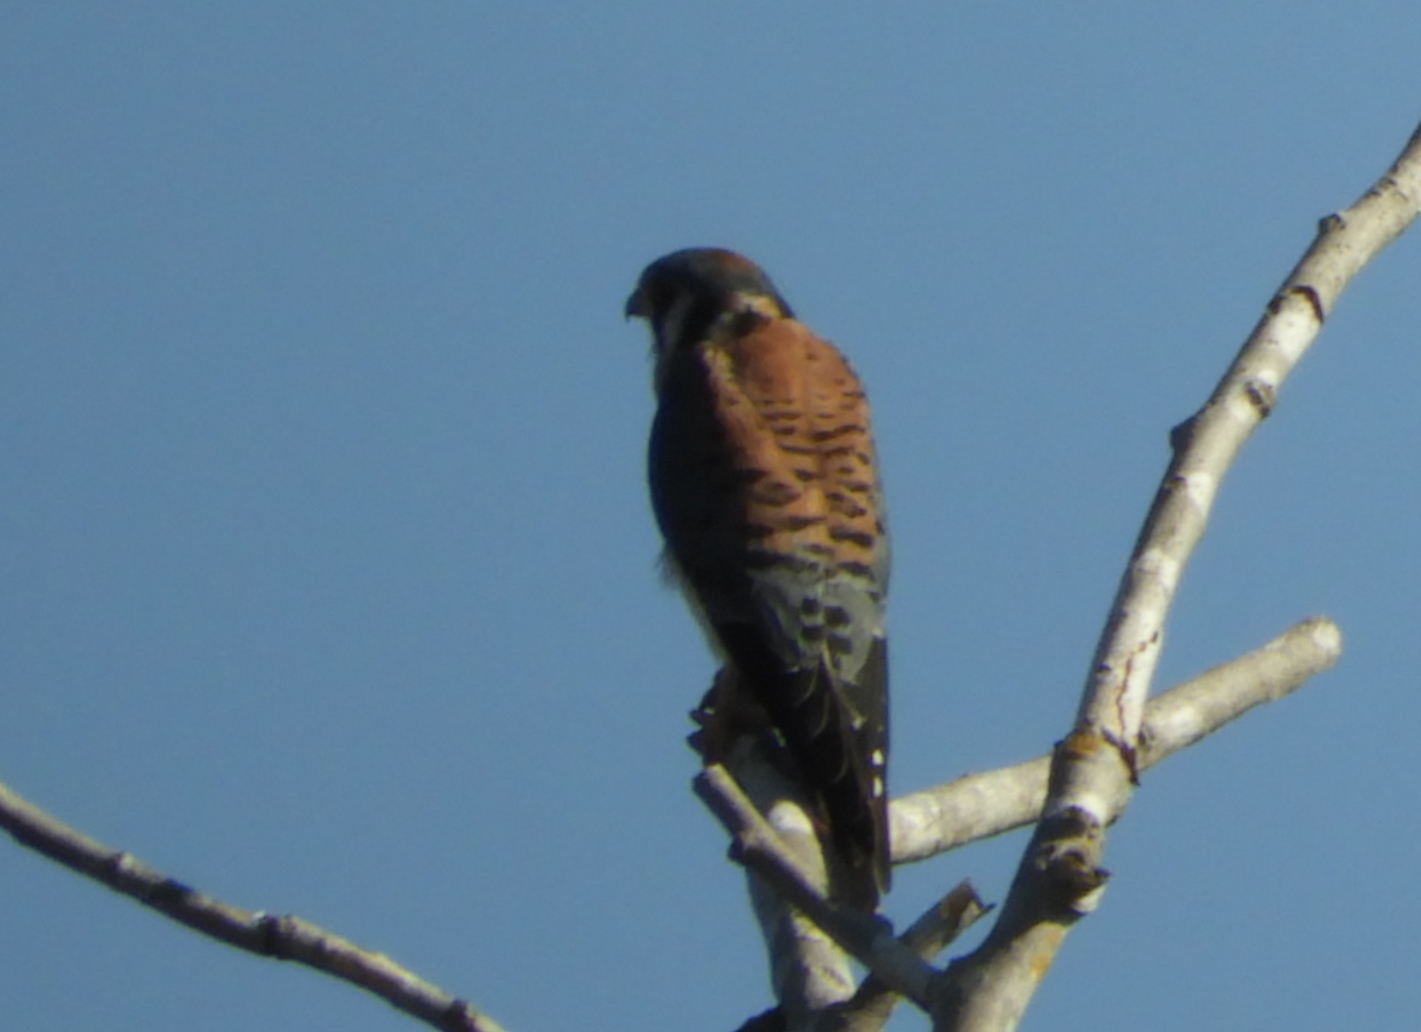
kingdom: Animalia
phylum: Chordata
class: Aves
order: Falconiformes
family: Falconidae
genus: Falco
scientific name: Falco sparverius
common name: American kestrel
